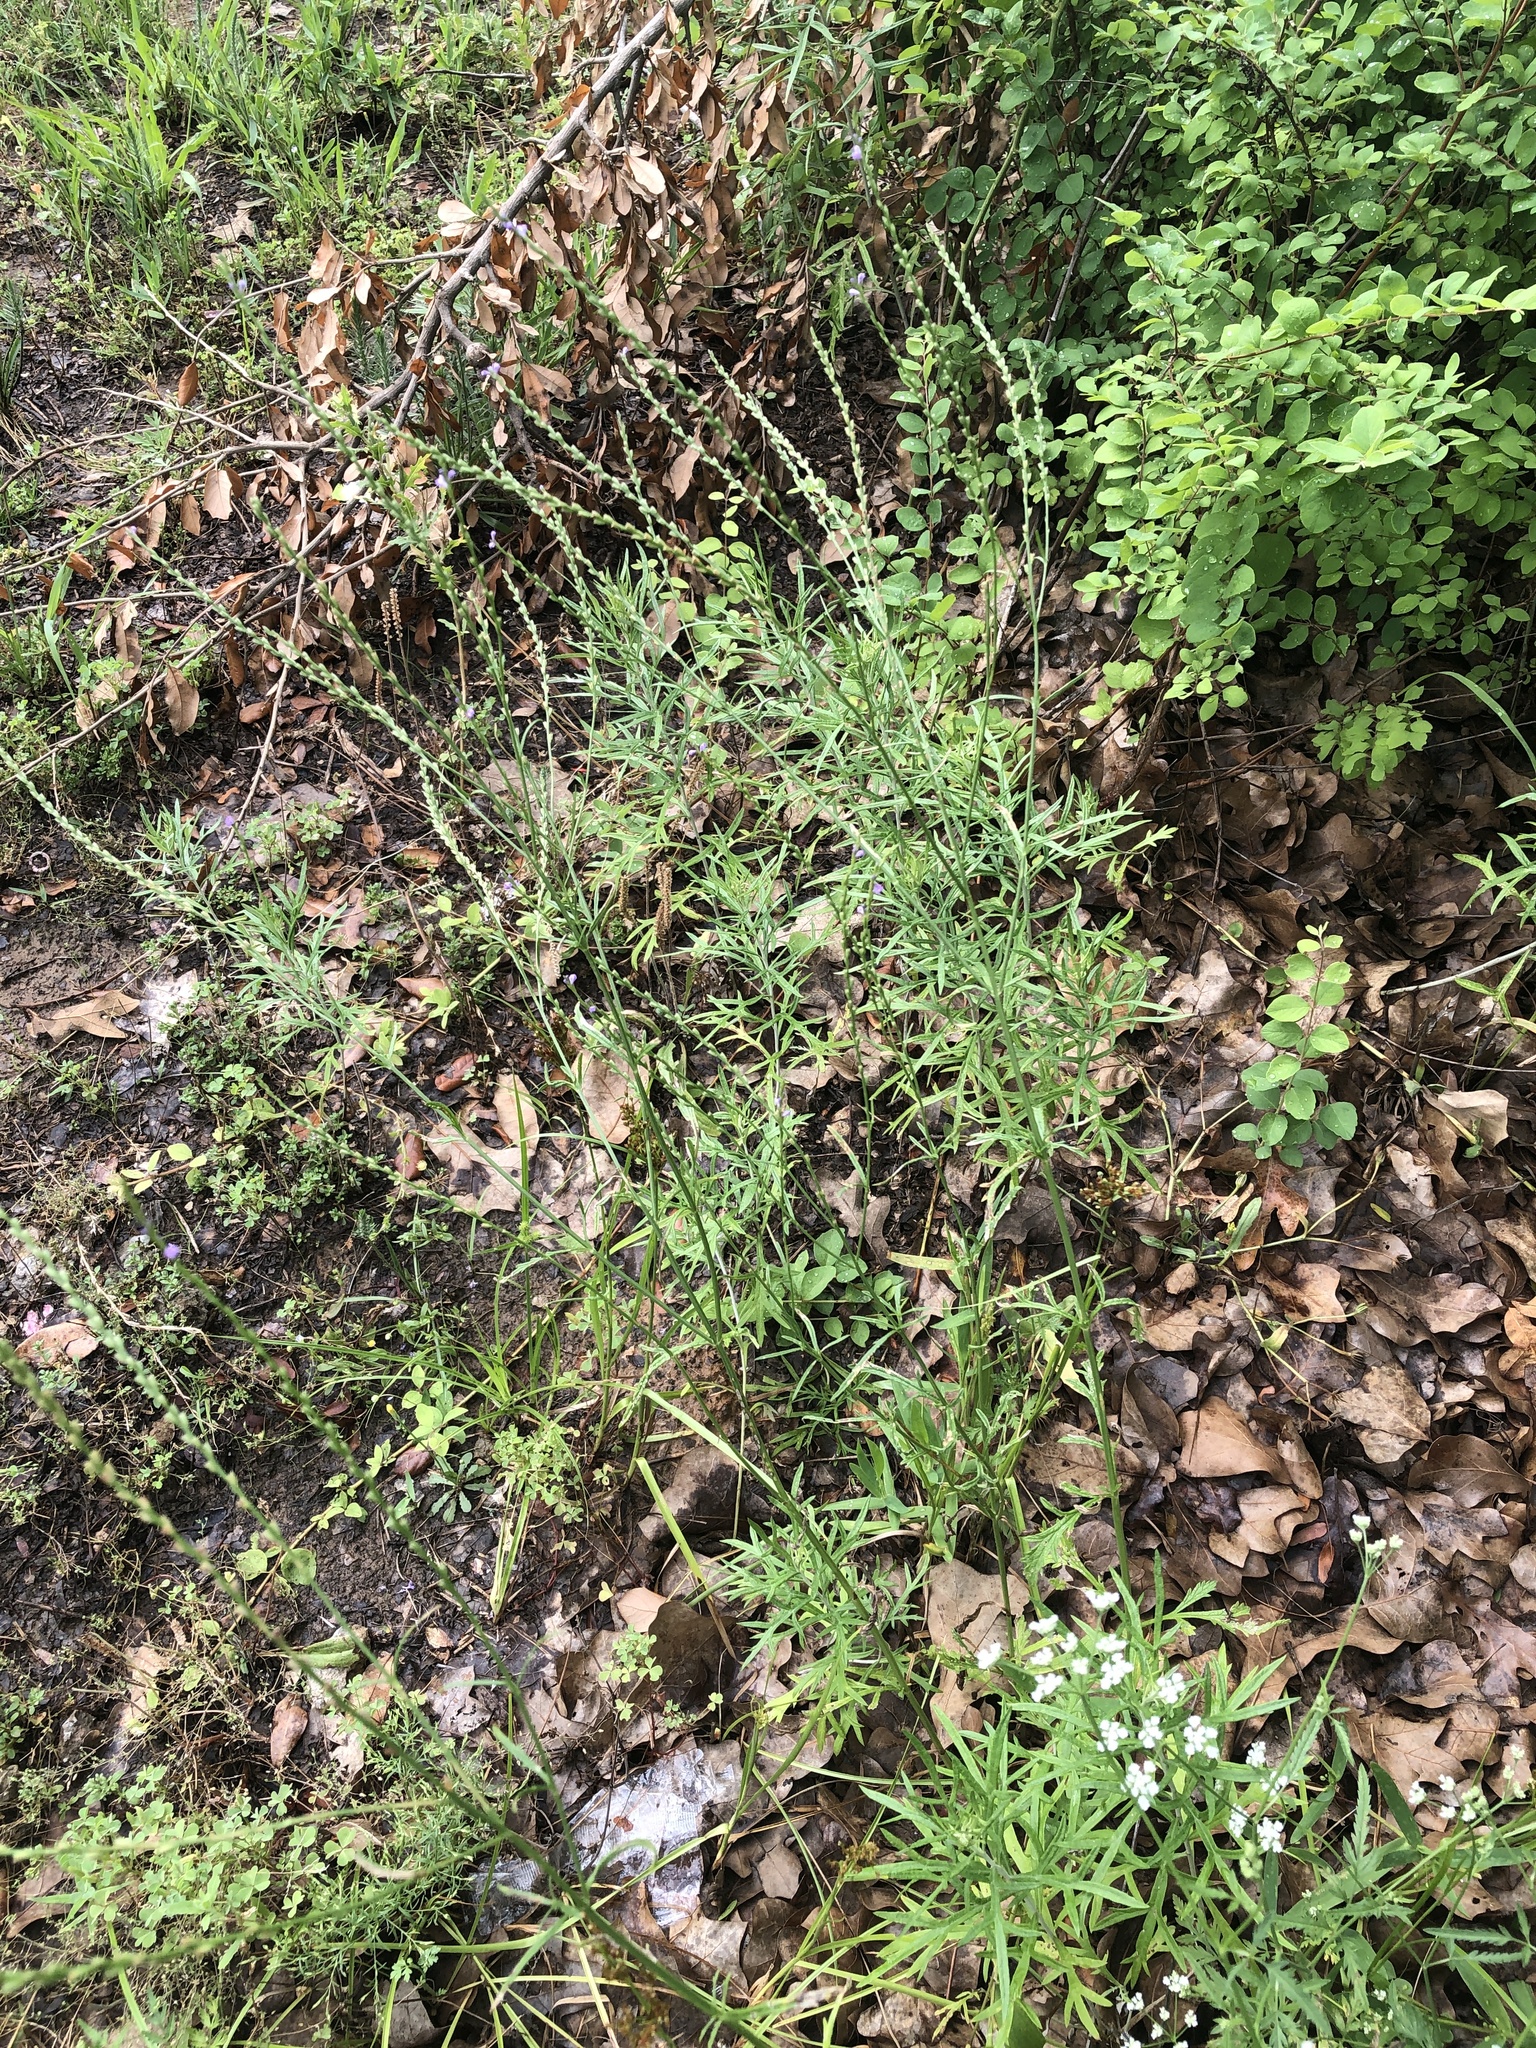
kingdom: Plantae
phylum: Tracheophyta
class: Magnoliopsida
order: Lamiales
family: Verbenaceae
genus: Verbena
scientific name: Verbena halei
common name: Texas vervain
